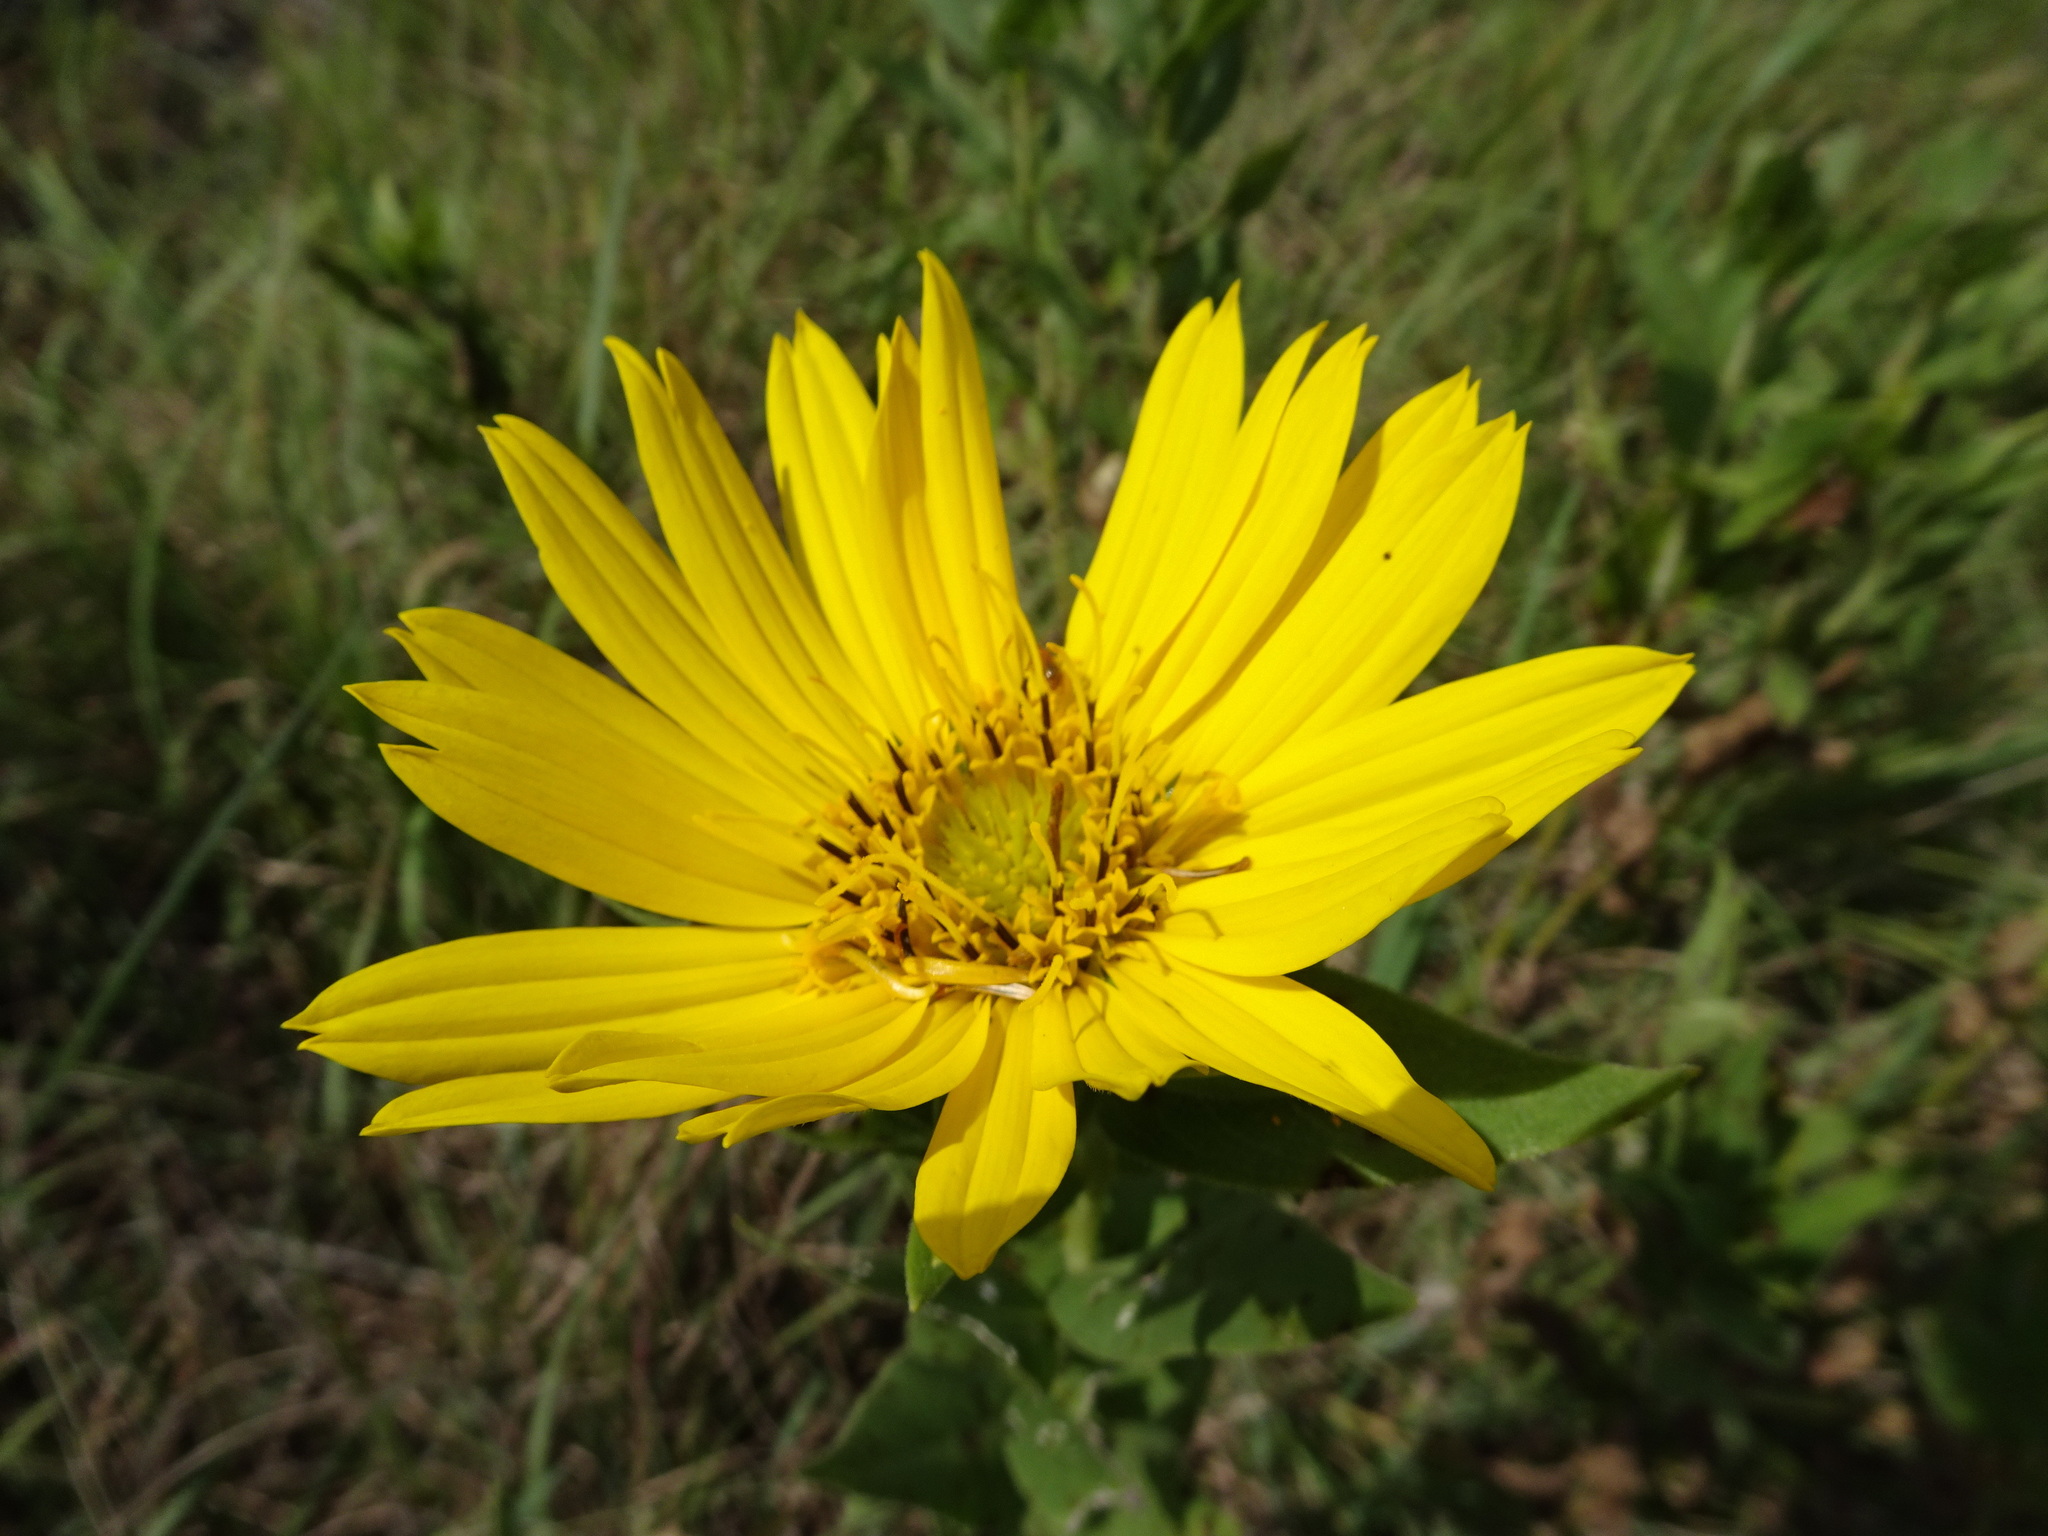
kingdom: Plantae
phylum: Tracheophyta
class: Magnoliopsida
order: Asterales
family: Asteraceae
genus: Silphium
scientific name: Silphium integrifolium
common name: Whole-leaf rosinweed
